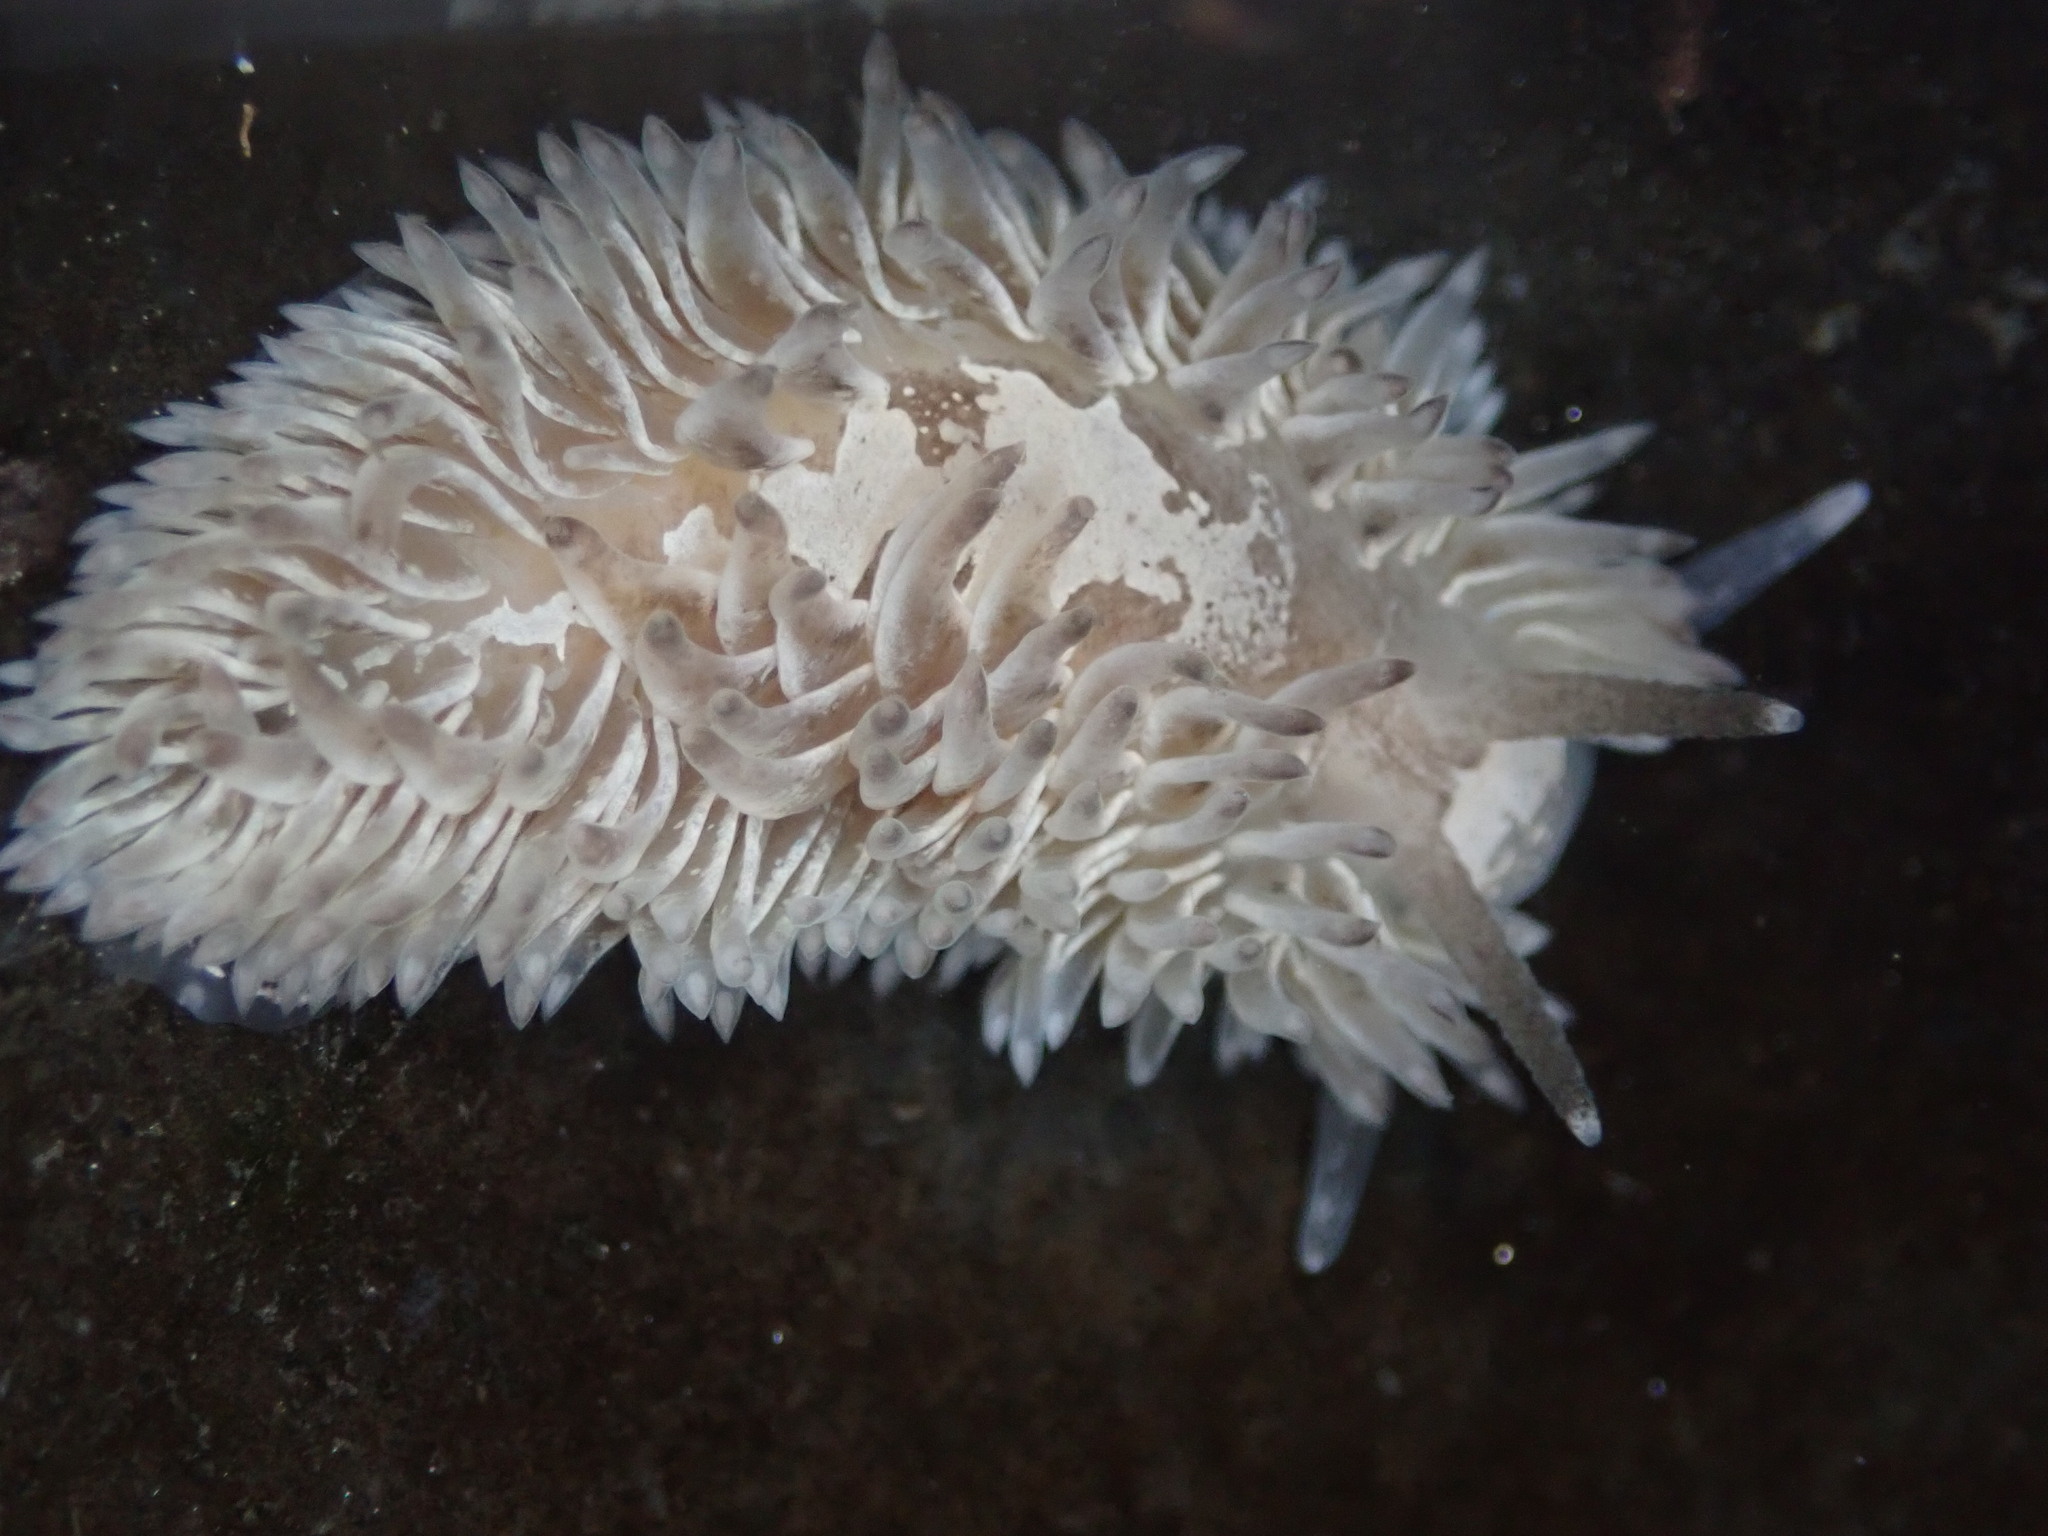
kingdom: Animalia
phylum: Mollusca
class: Gastropoda
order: Nudibranchia
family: Aeolidiidae
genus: Aeolidia
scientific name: Aeolidia loui
